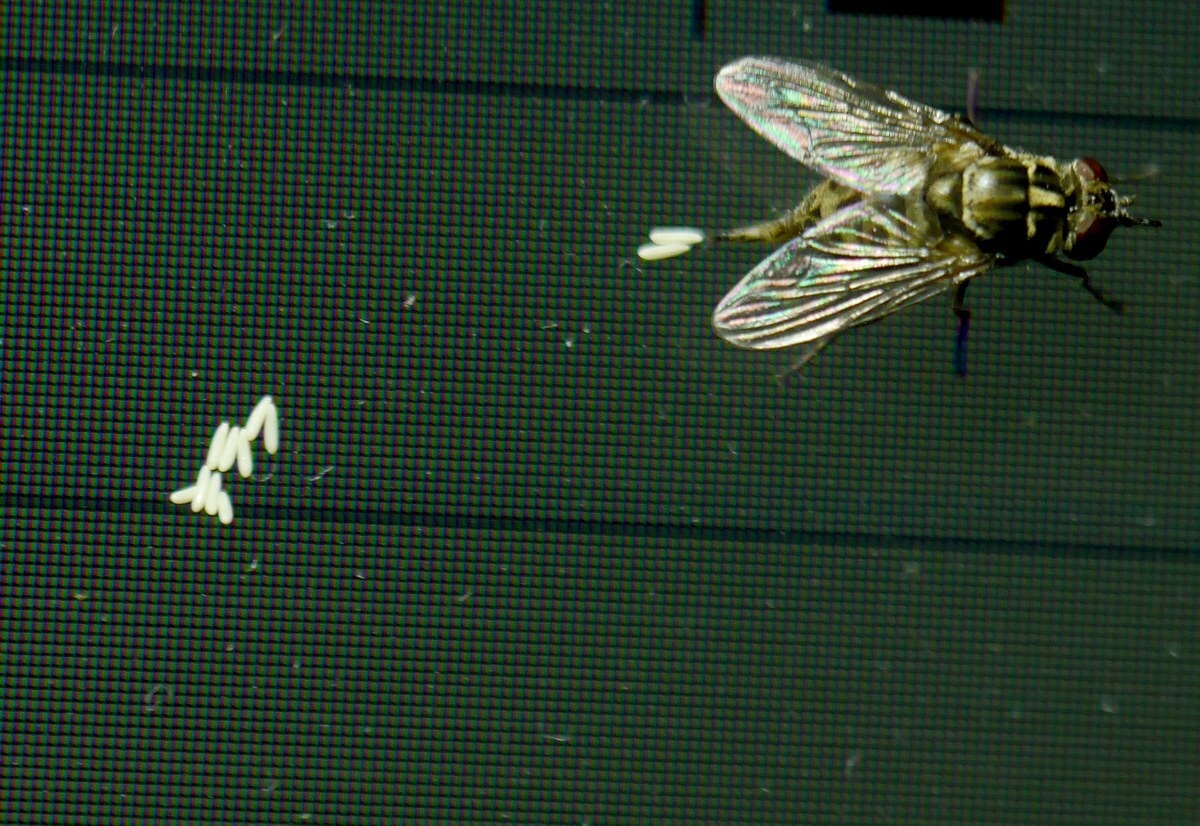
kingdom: Animalia
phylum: Arthropoda
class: Insecta
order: Diptera
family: Muscidae
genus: Stomoxys
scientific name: Stomoxys calcitrans
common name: Stable fly
